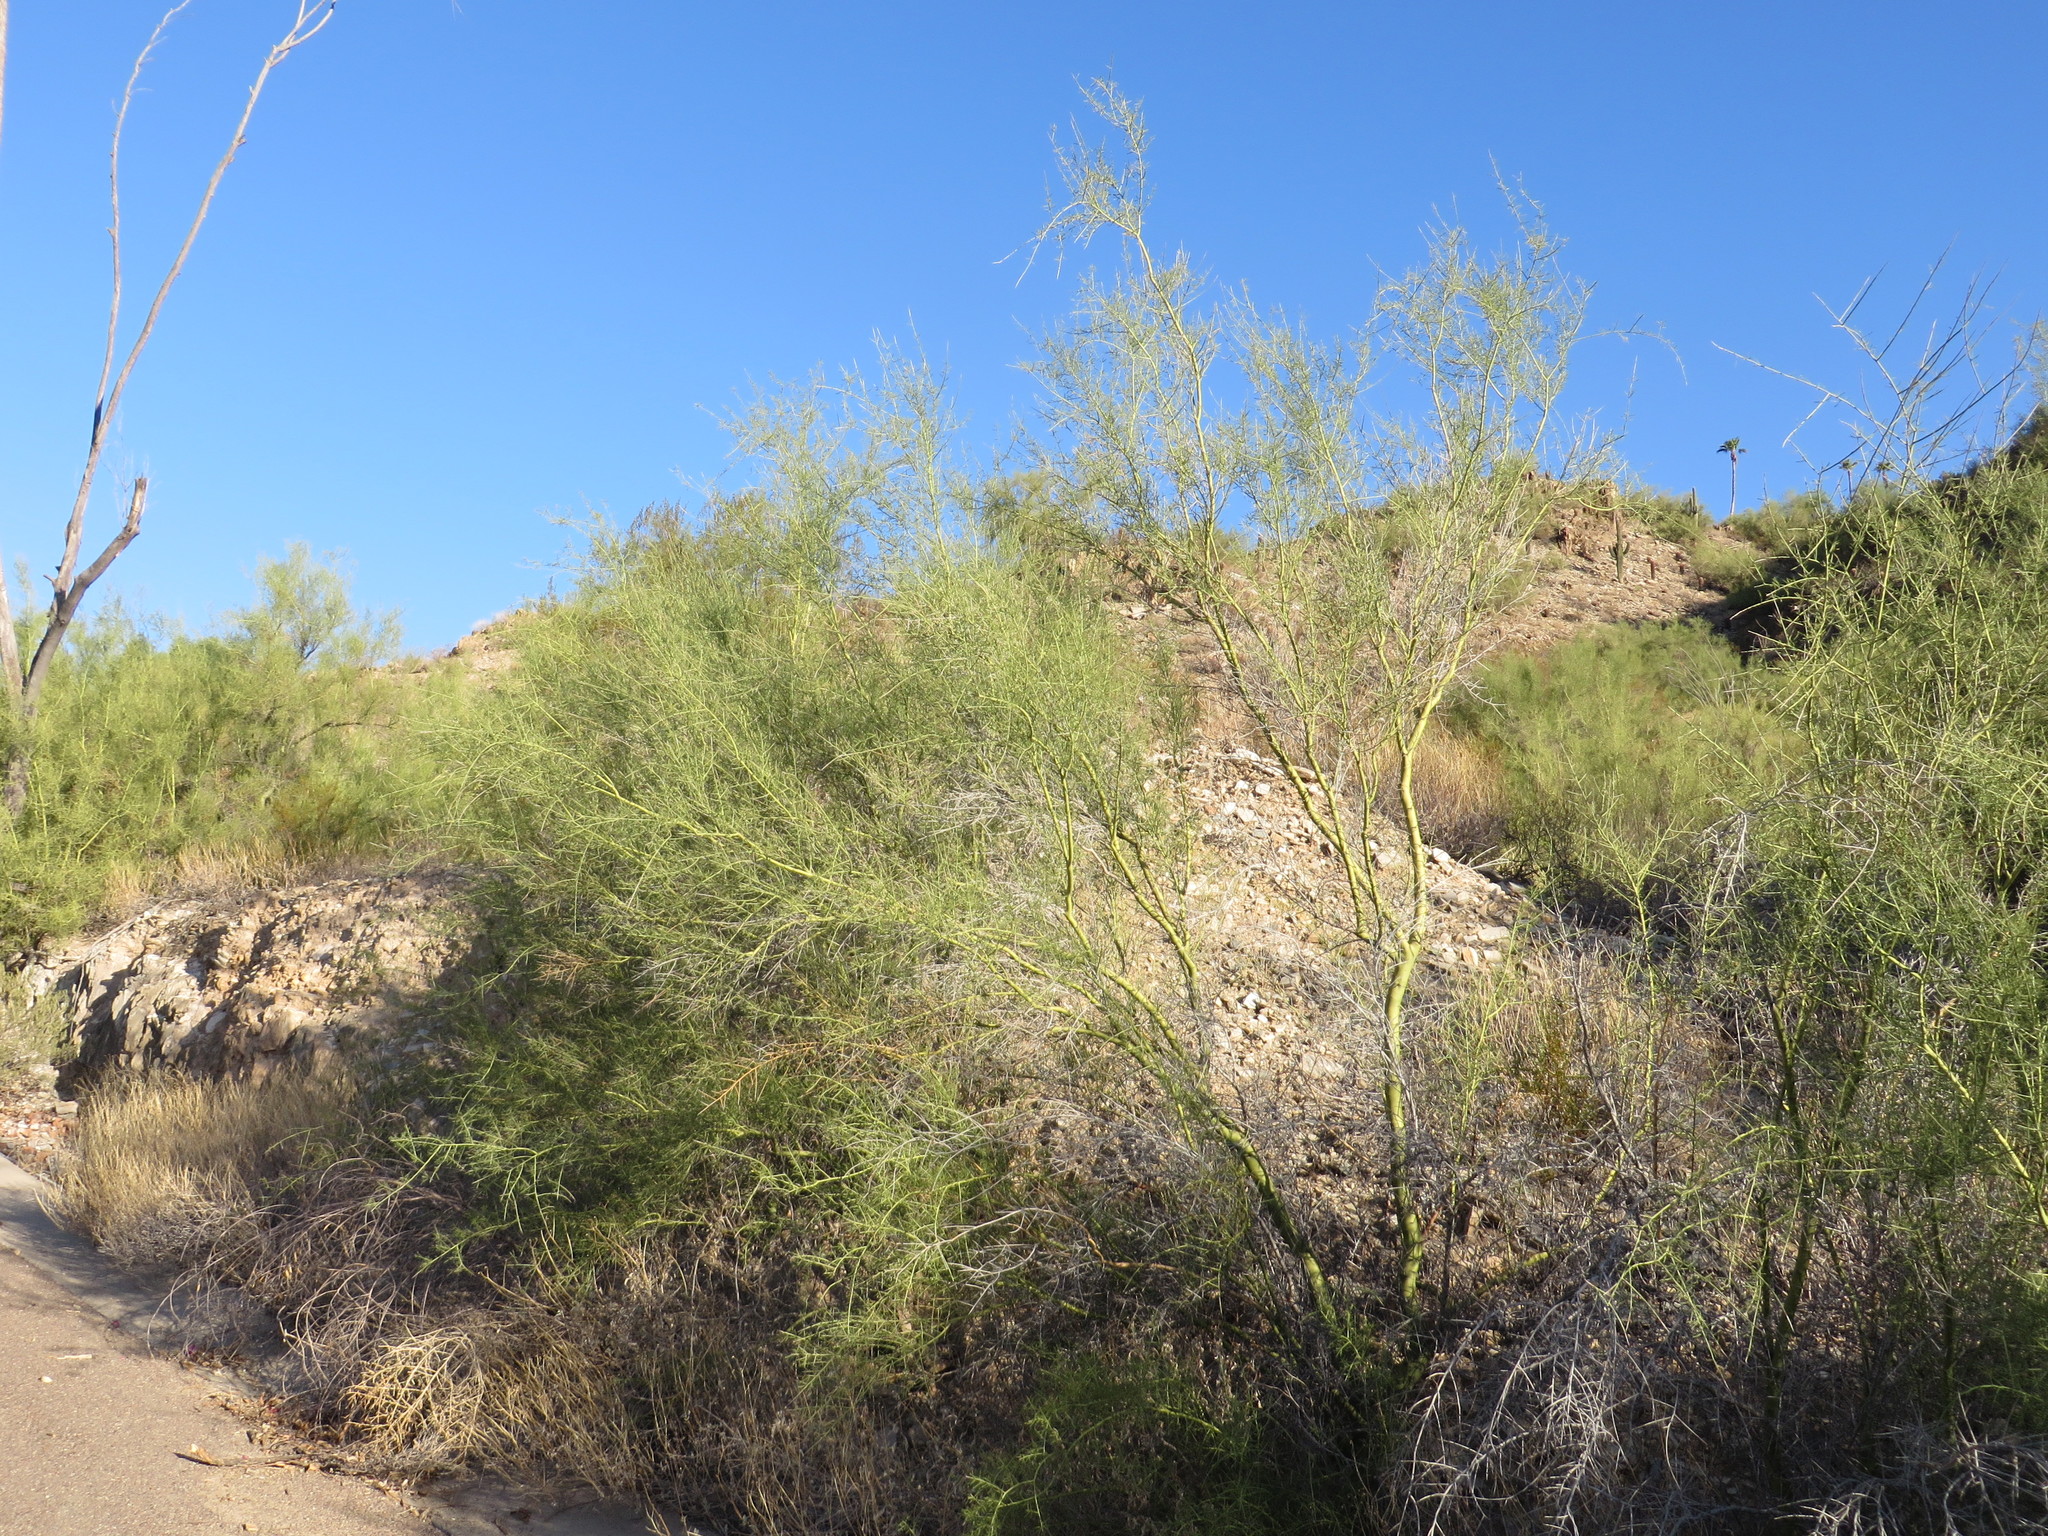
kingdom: Plantae
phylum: Tracheophyta
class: Magnoliopsida
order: Fabales
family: Fabaceae
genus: Parkinsonia
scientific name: Parkinsonia microphylla
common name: Yellow paloverde
